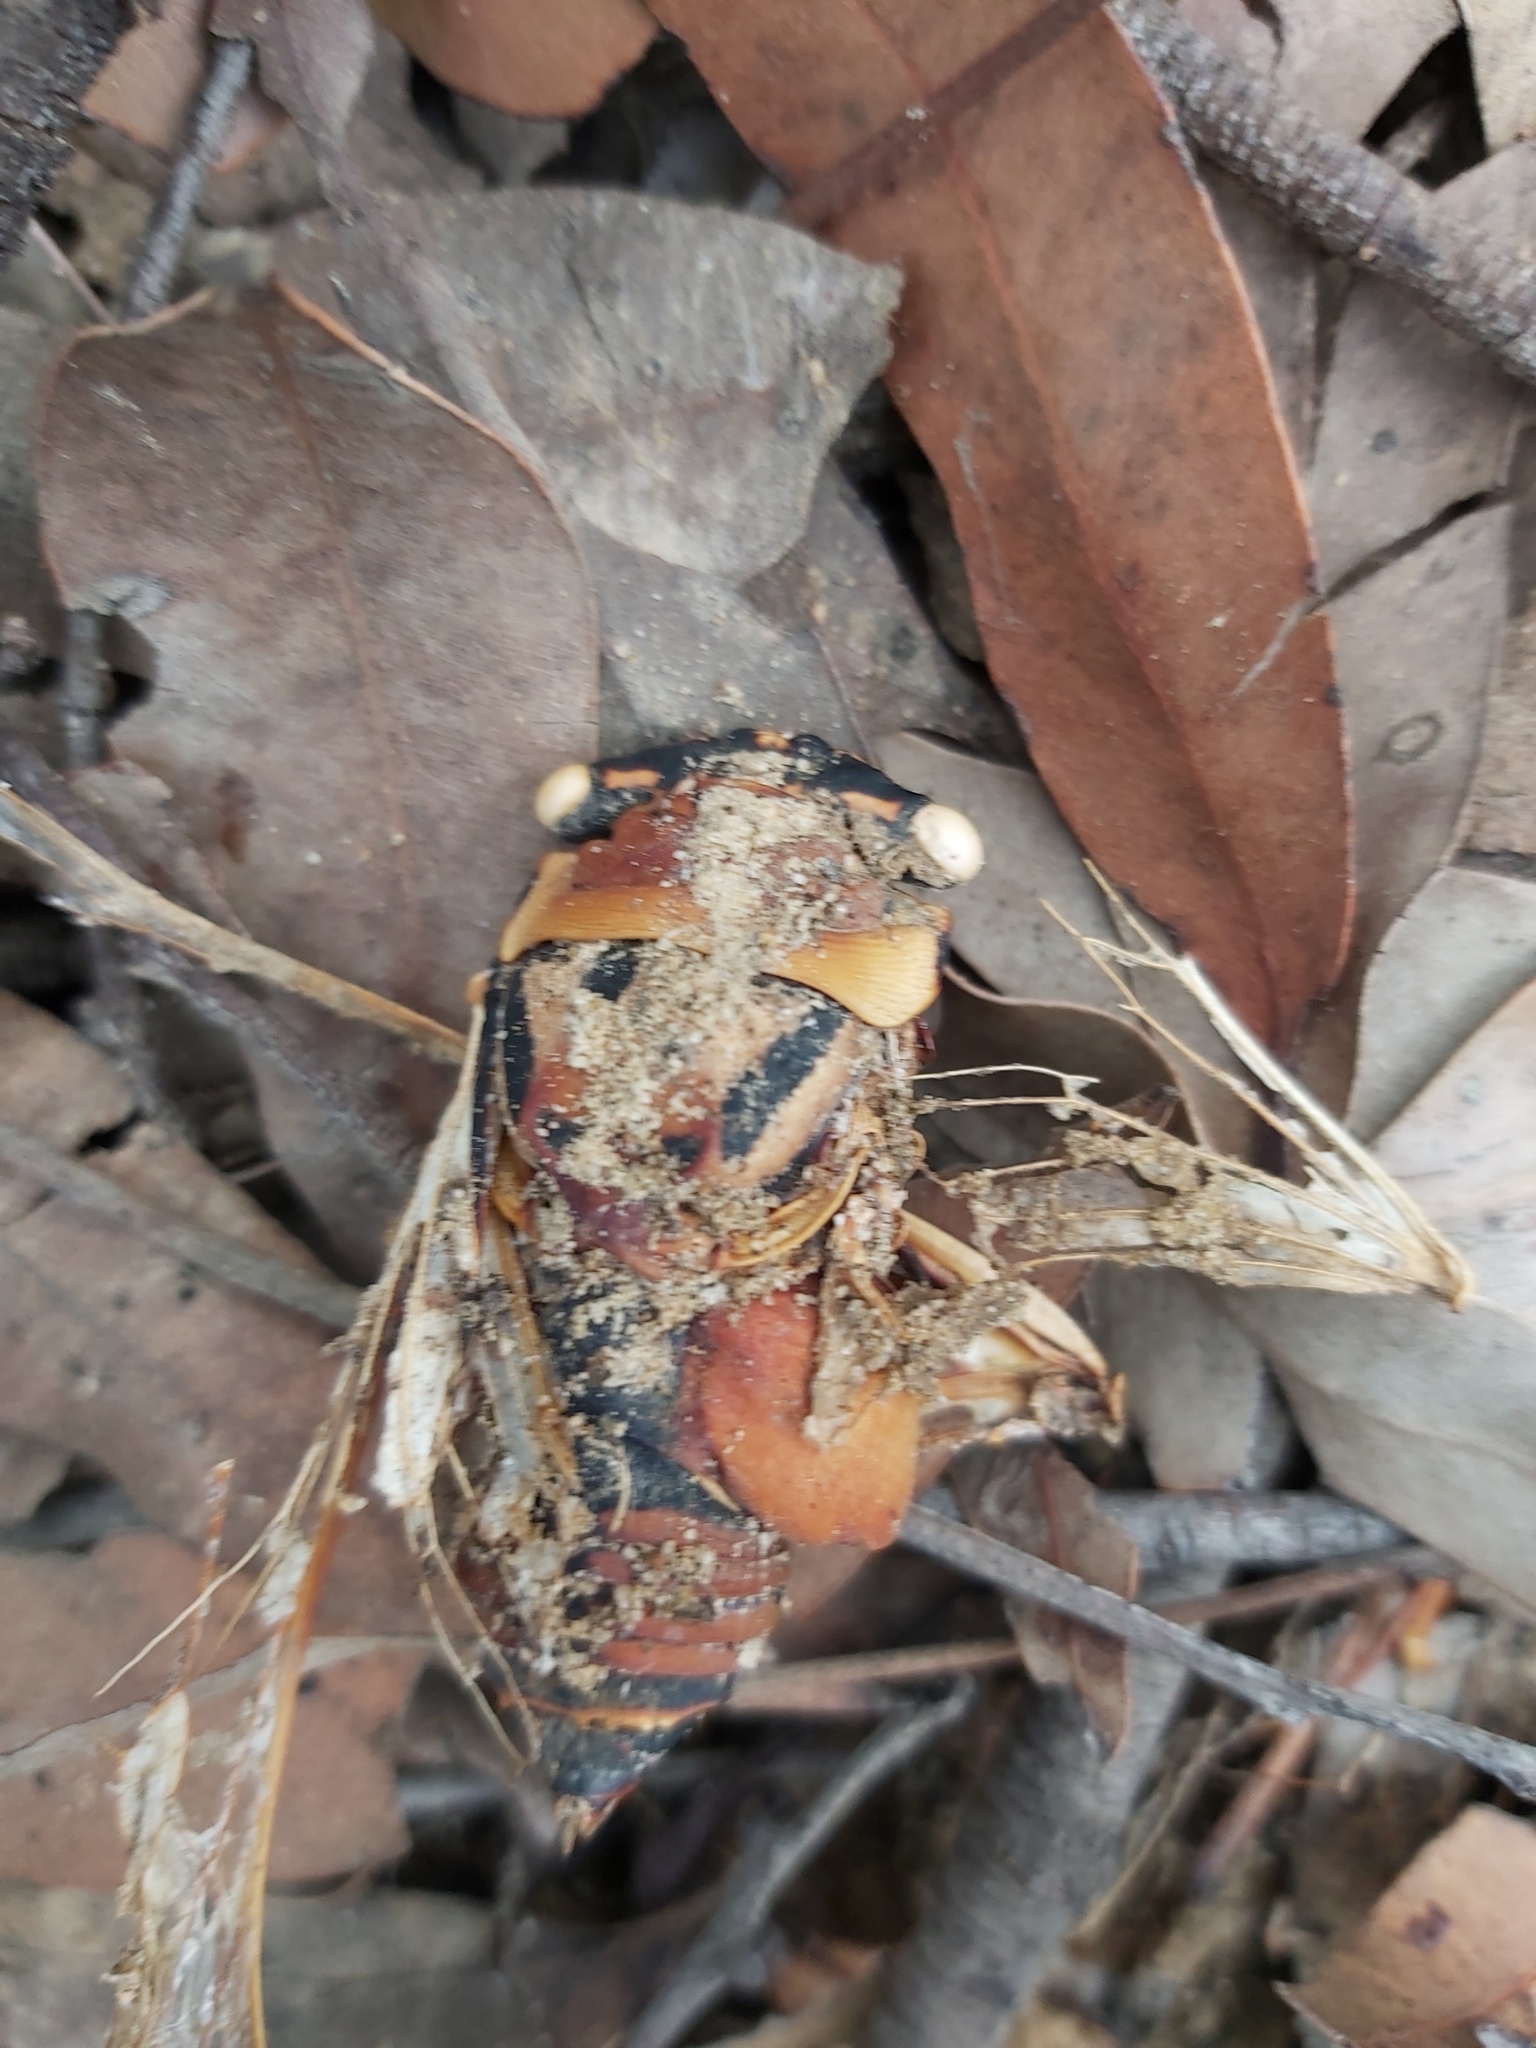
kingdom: Animalia
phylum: Arthropoda
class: Insecta
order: Hemiptera
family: Cicadidae
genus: Thopha
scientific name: Thopha saccata
